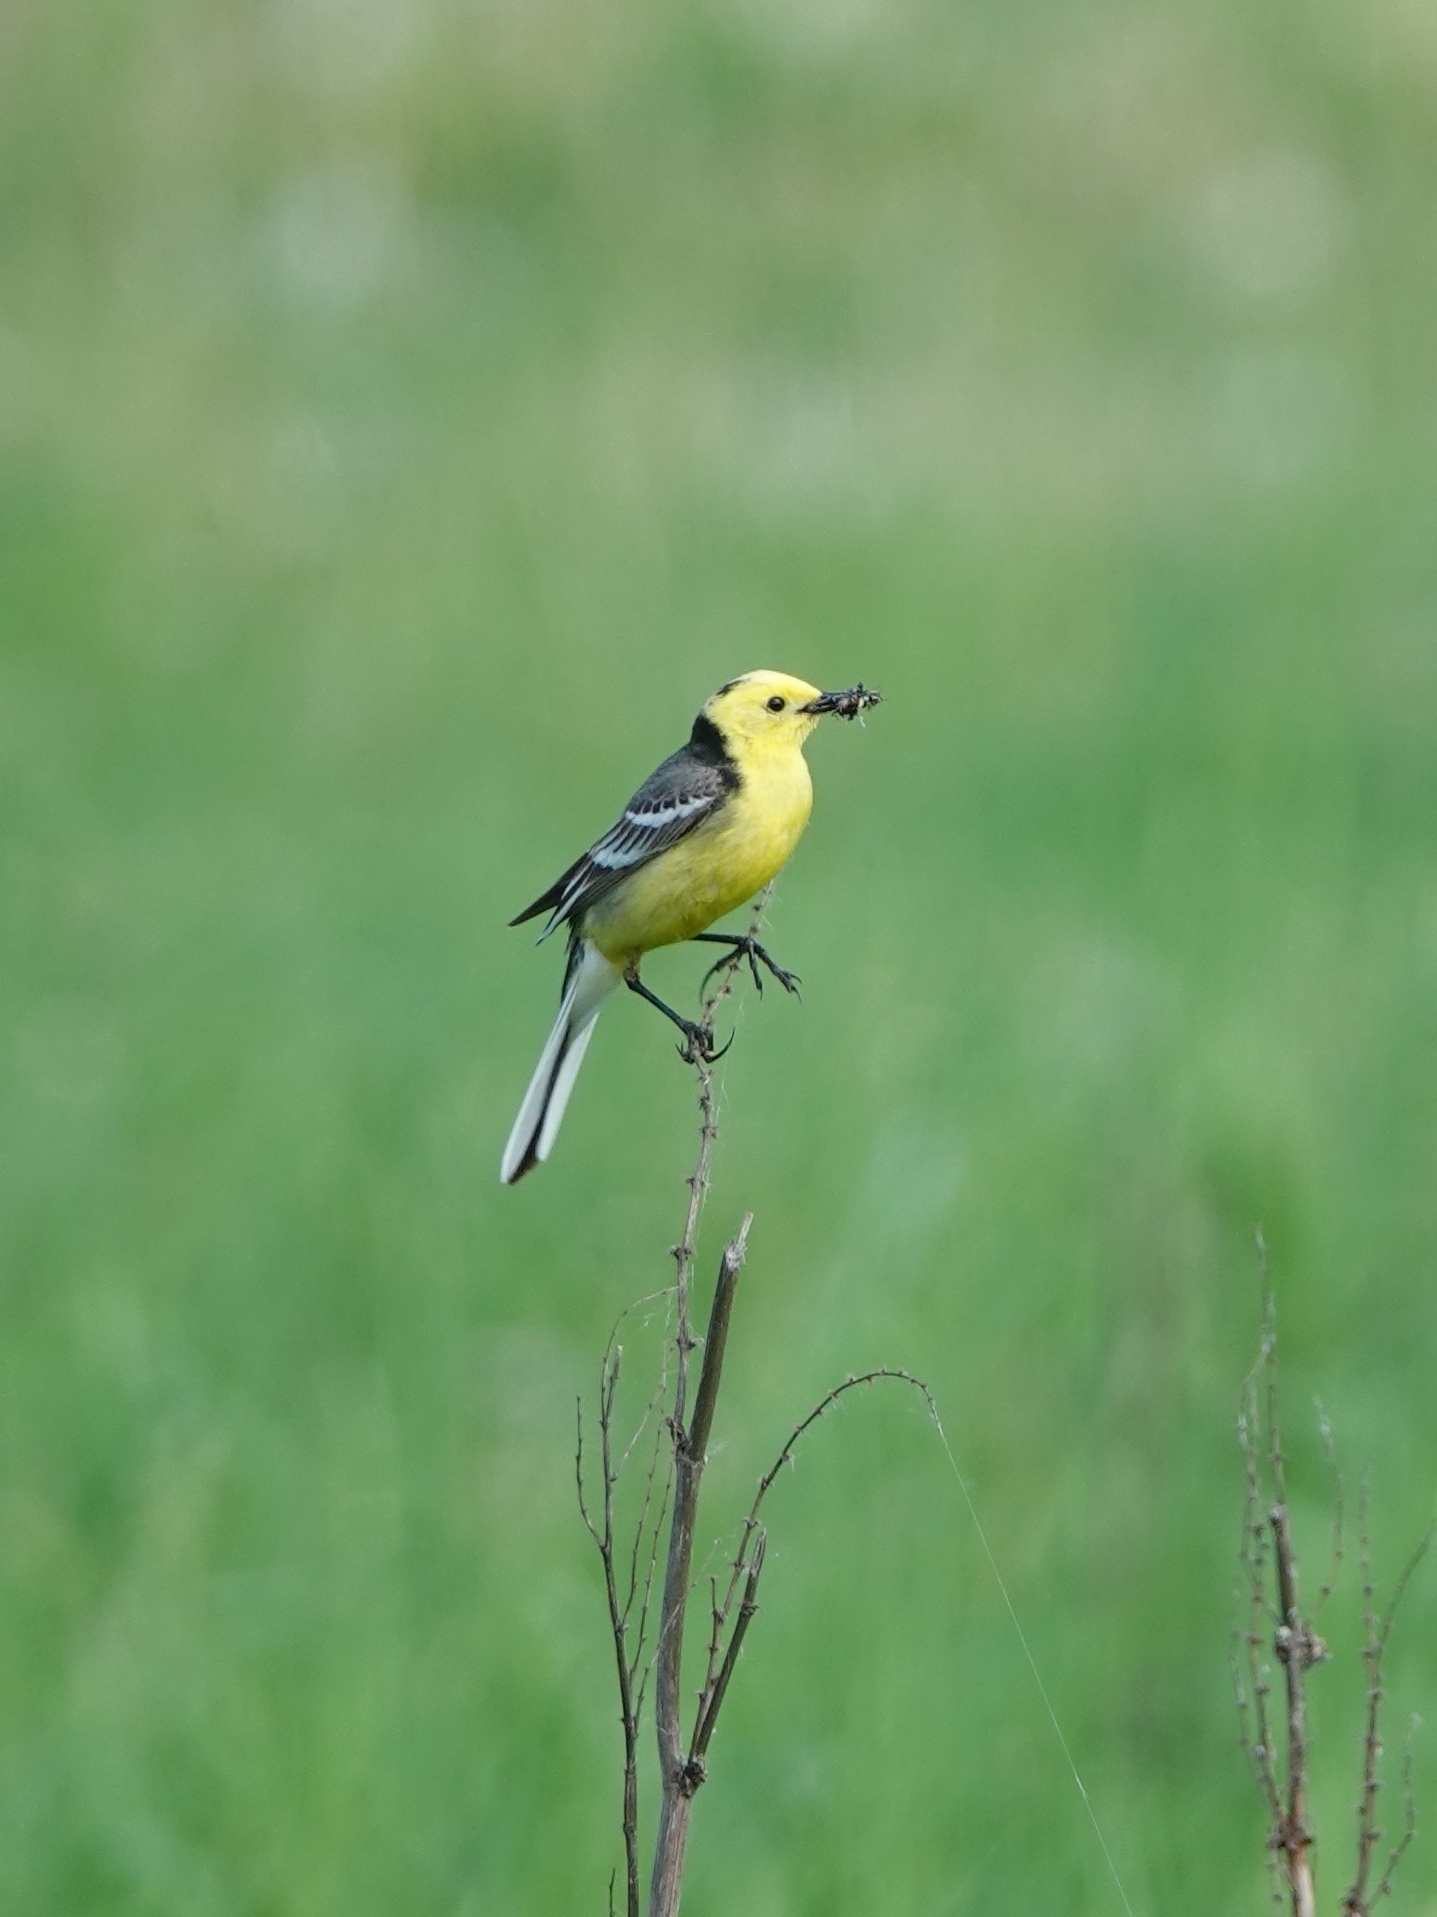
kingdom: Animalia
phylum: Chordata
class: Aves
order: Passeriformes
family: Motacillidae
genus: Motacilla
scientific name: Motacilla citreola
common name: Citrine wagtail
